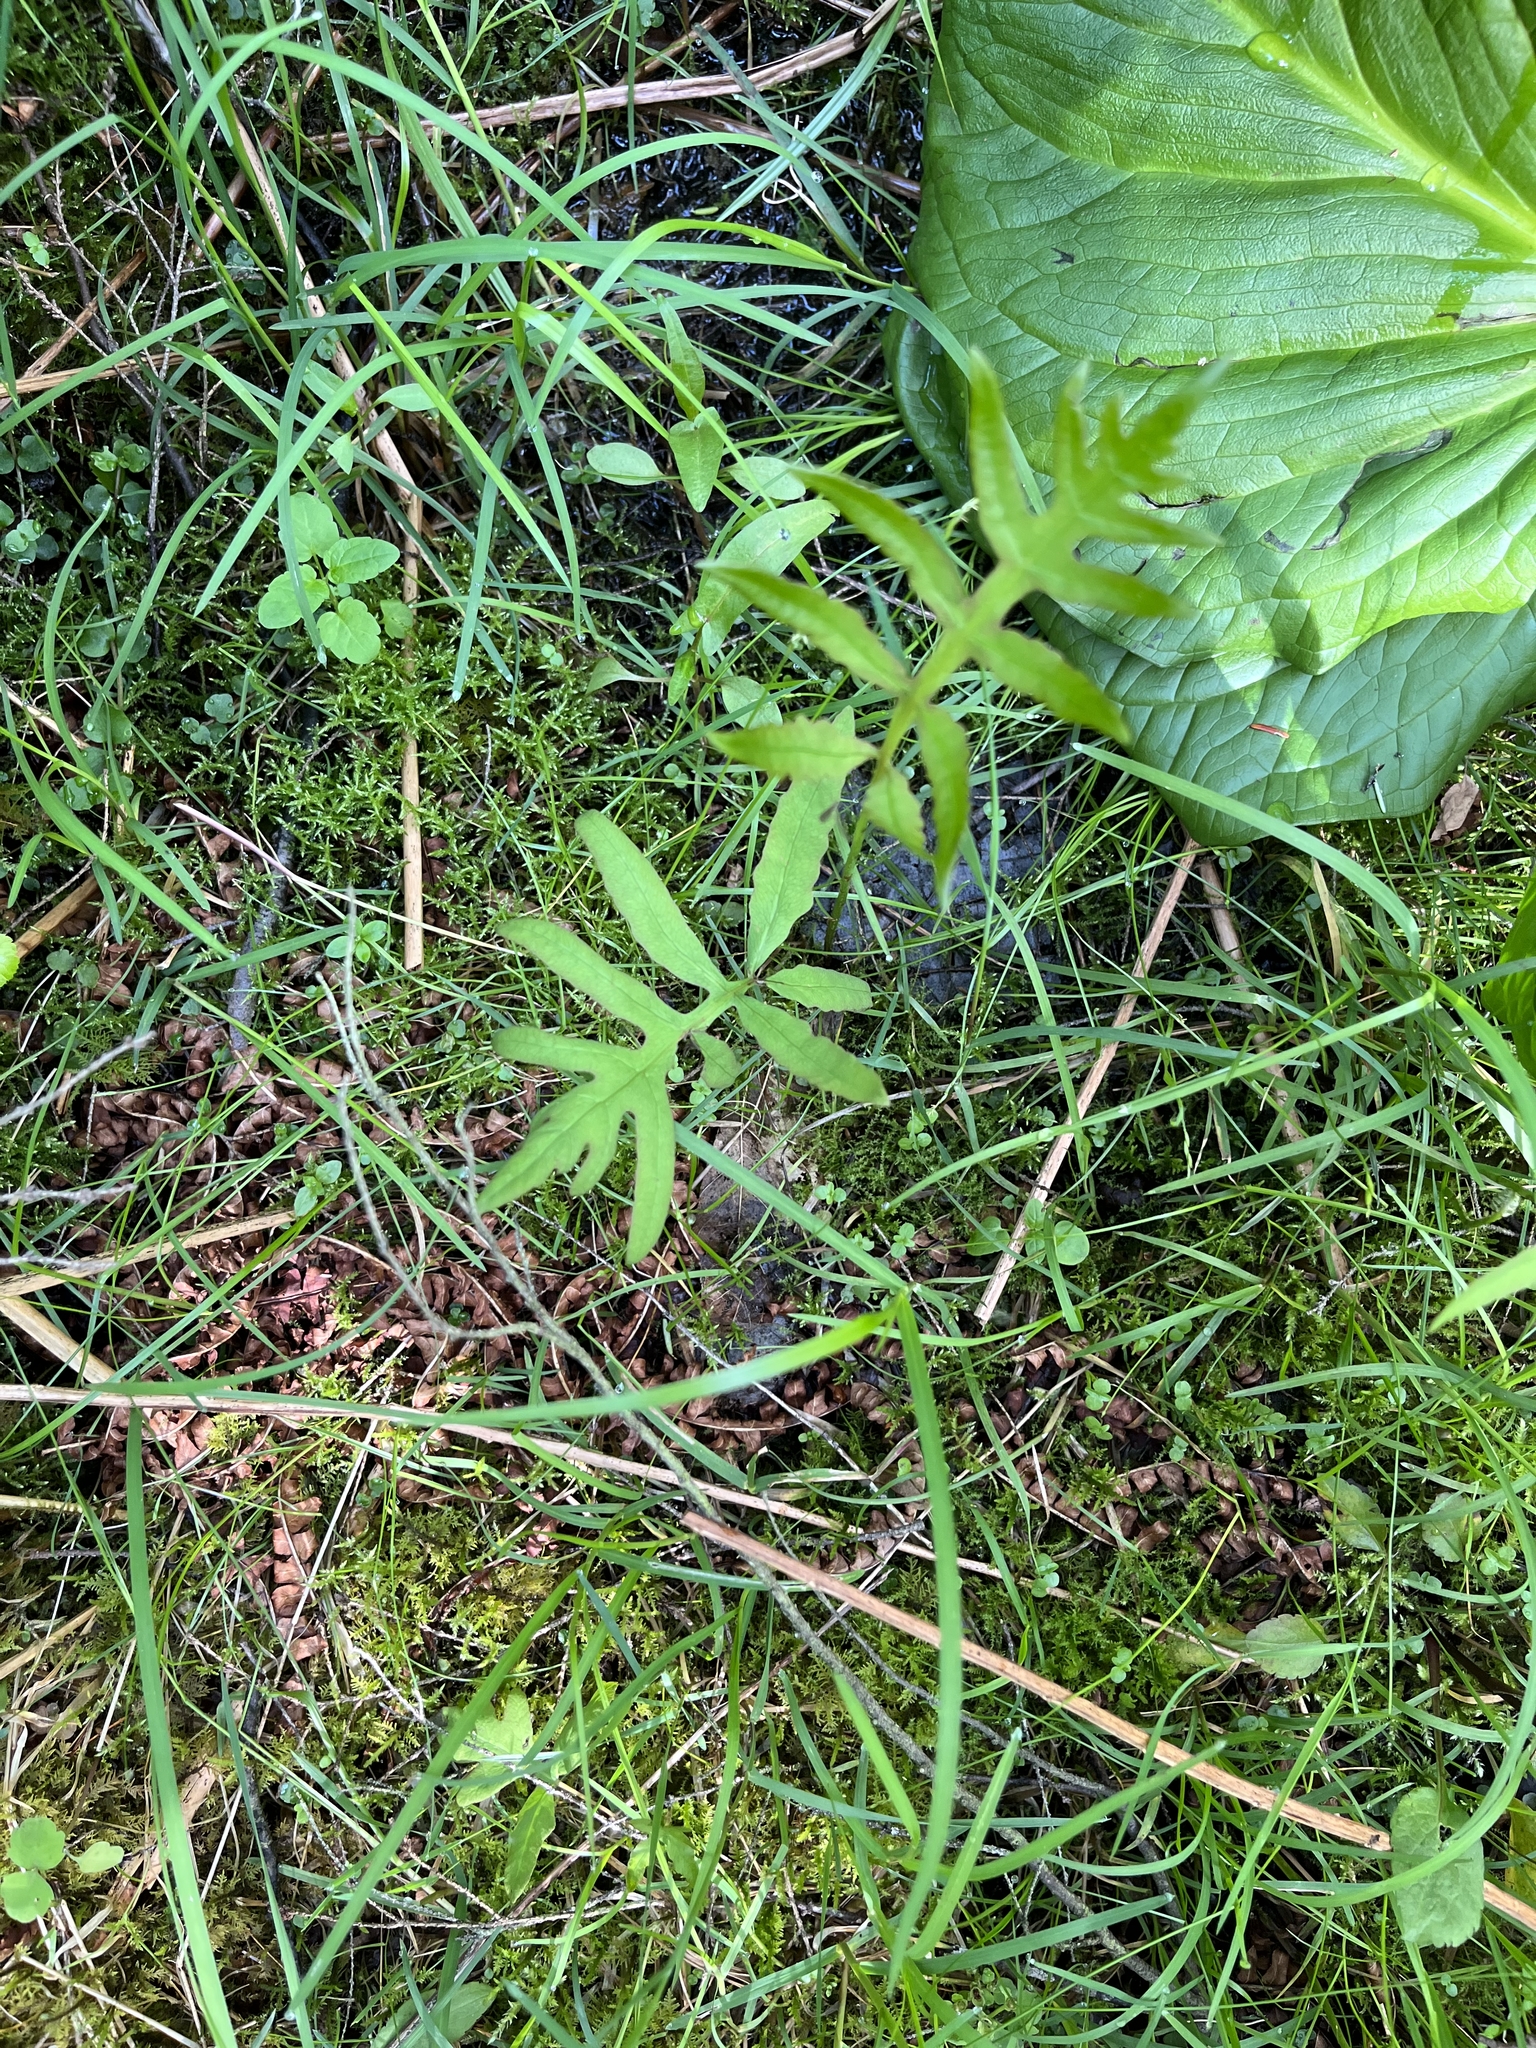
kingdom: Plantae
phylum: Tracheophyta
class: Polypodiopsida
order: Polypodiales
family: Onocleaceae
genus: Onoclea
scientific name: Onoclea sensibilis
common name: Sensitive fern
